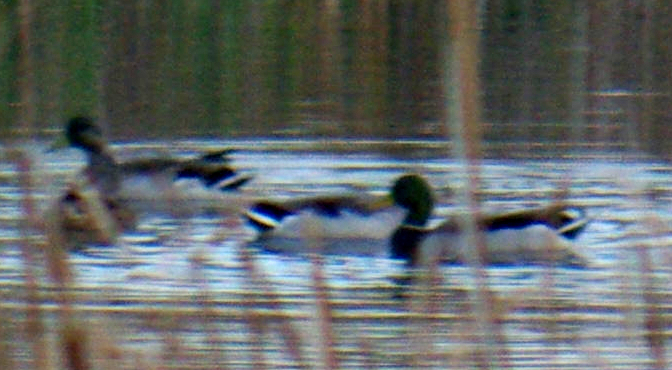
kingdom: Animalia
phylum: Chordata
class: Aves
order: Anseriformes
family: Anatidae
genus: Anas
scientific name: Anas platyrhynchos
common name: Mallard
